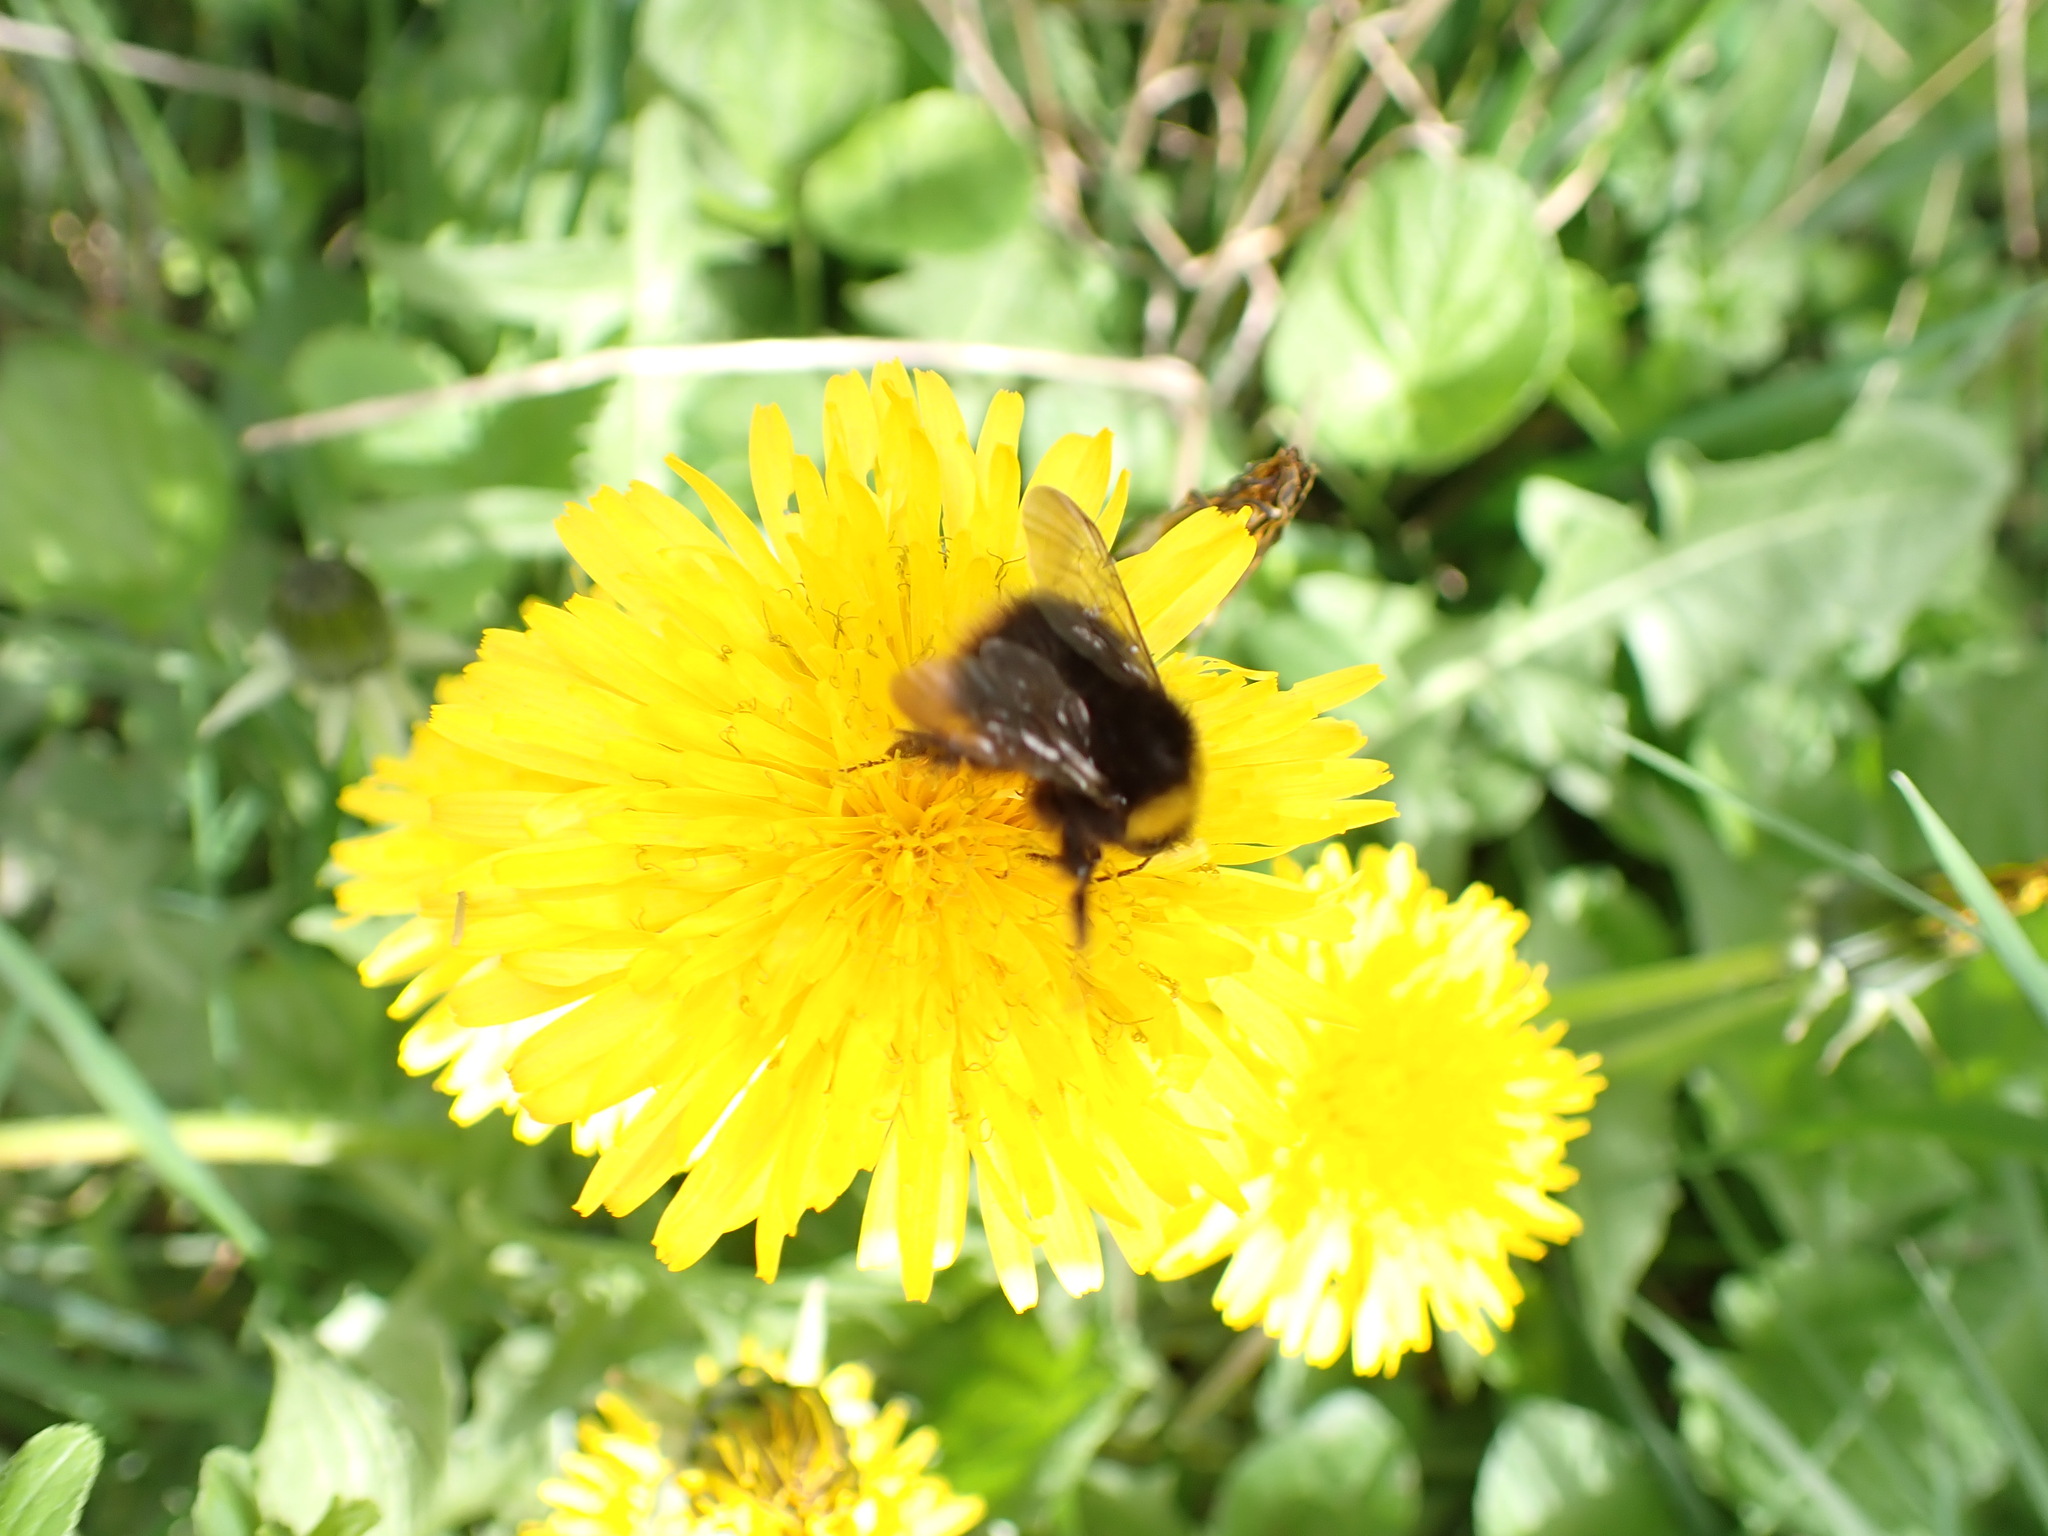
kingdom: Animalia
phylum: Arthropoda
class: Insecta
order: Hymenoptera
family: Apidae
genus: Bombus
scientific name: Bombus pratorum
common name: Early humble-bee
